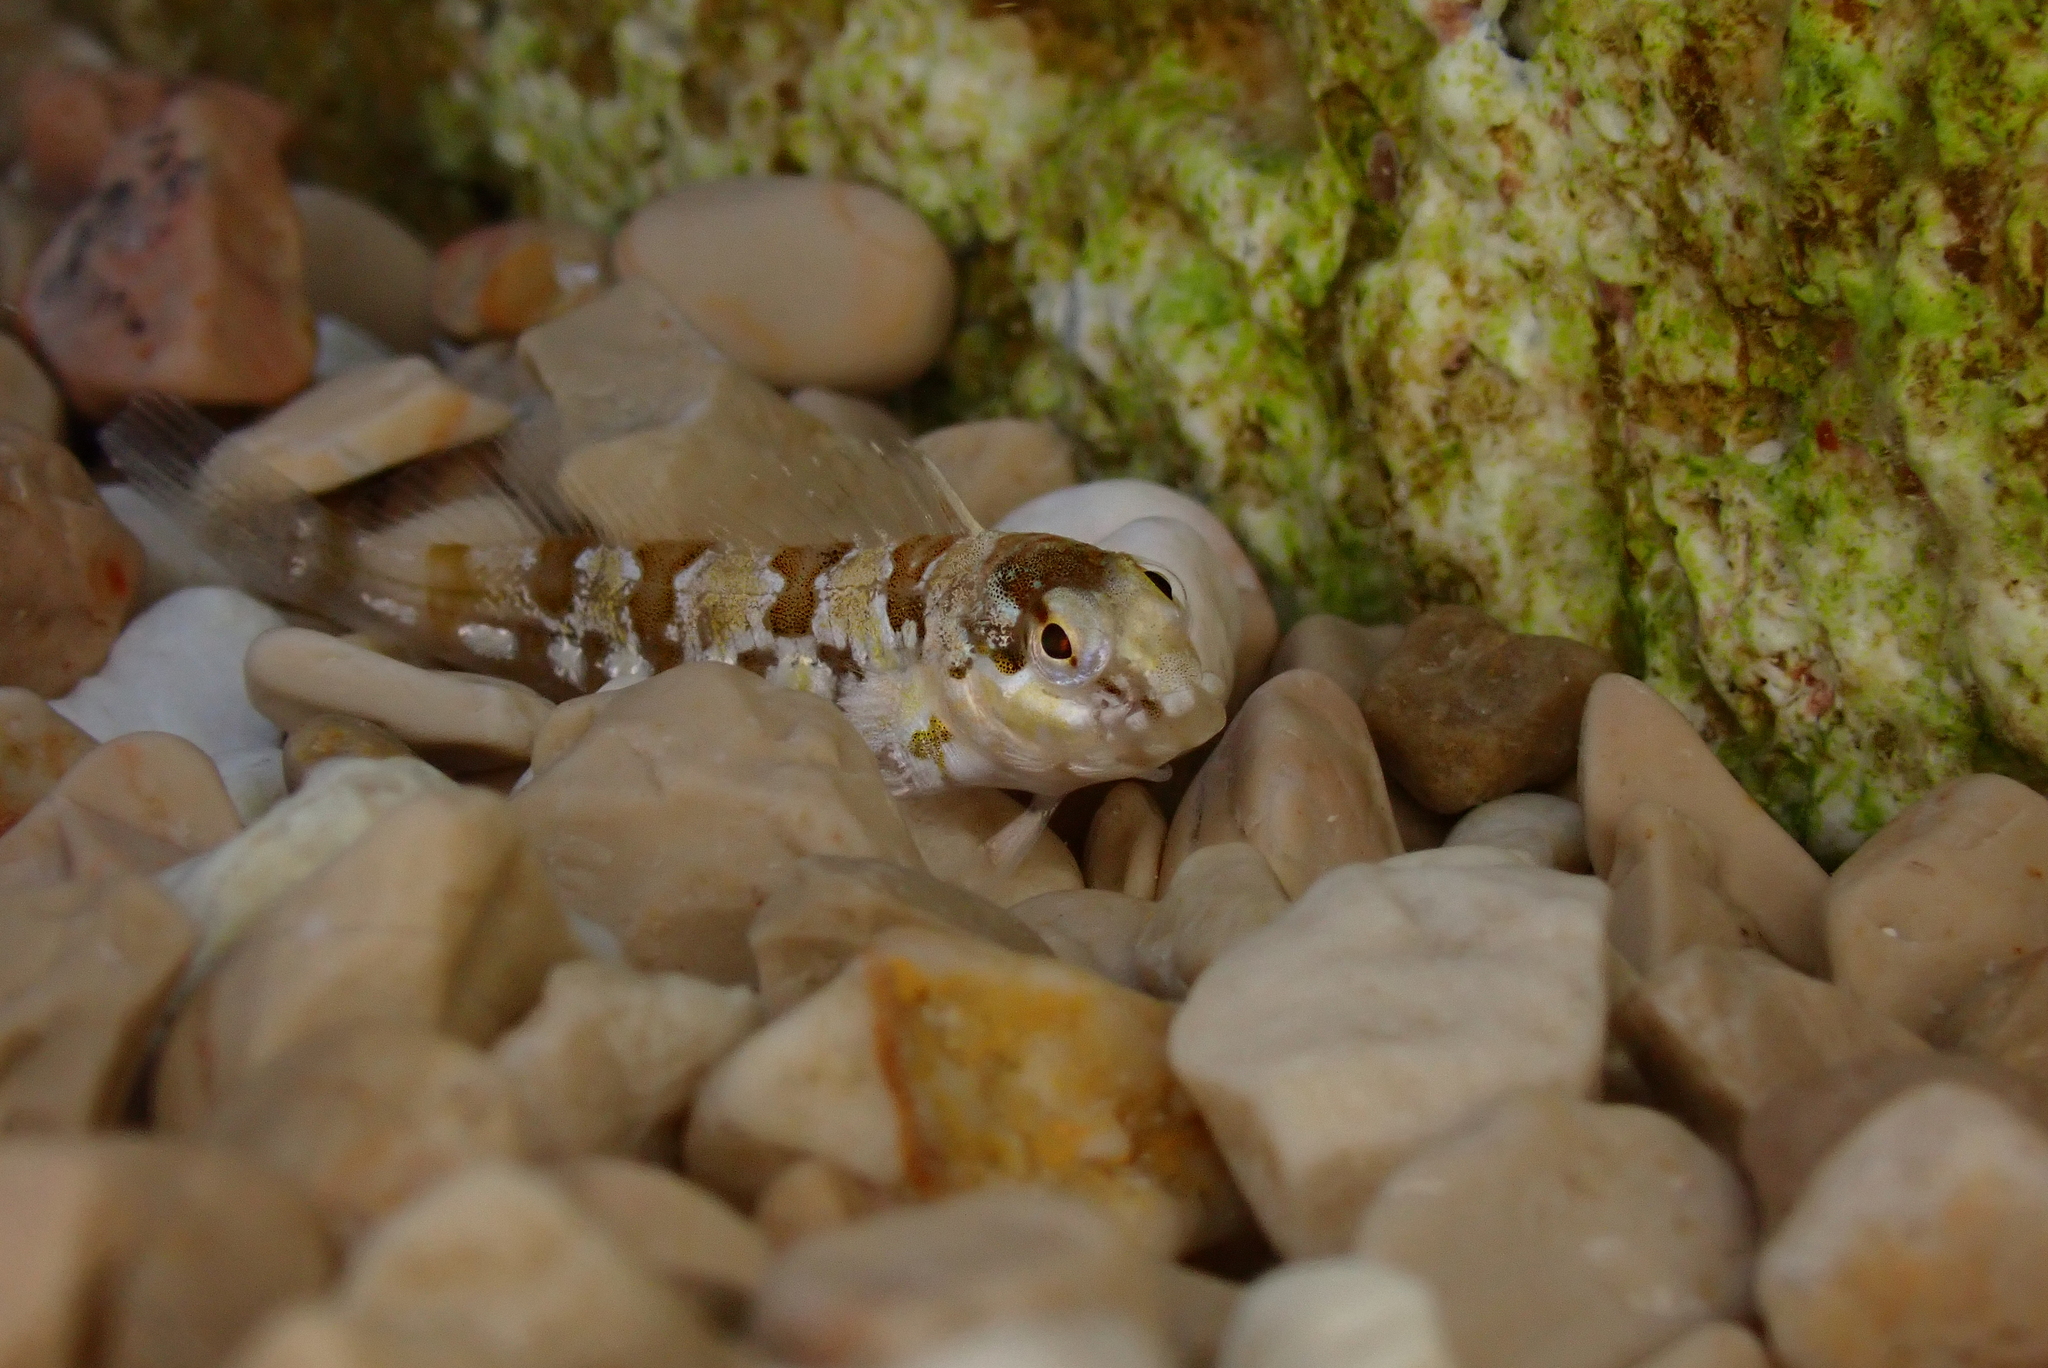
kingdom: Animalia
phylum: Chordata
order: Perciformes
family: Blenniidae
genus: Lipophrys
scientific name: Lipophrys trigloides
